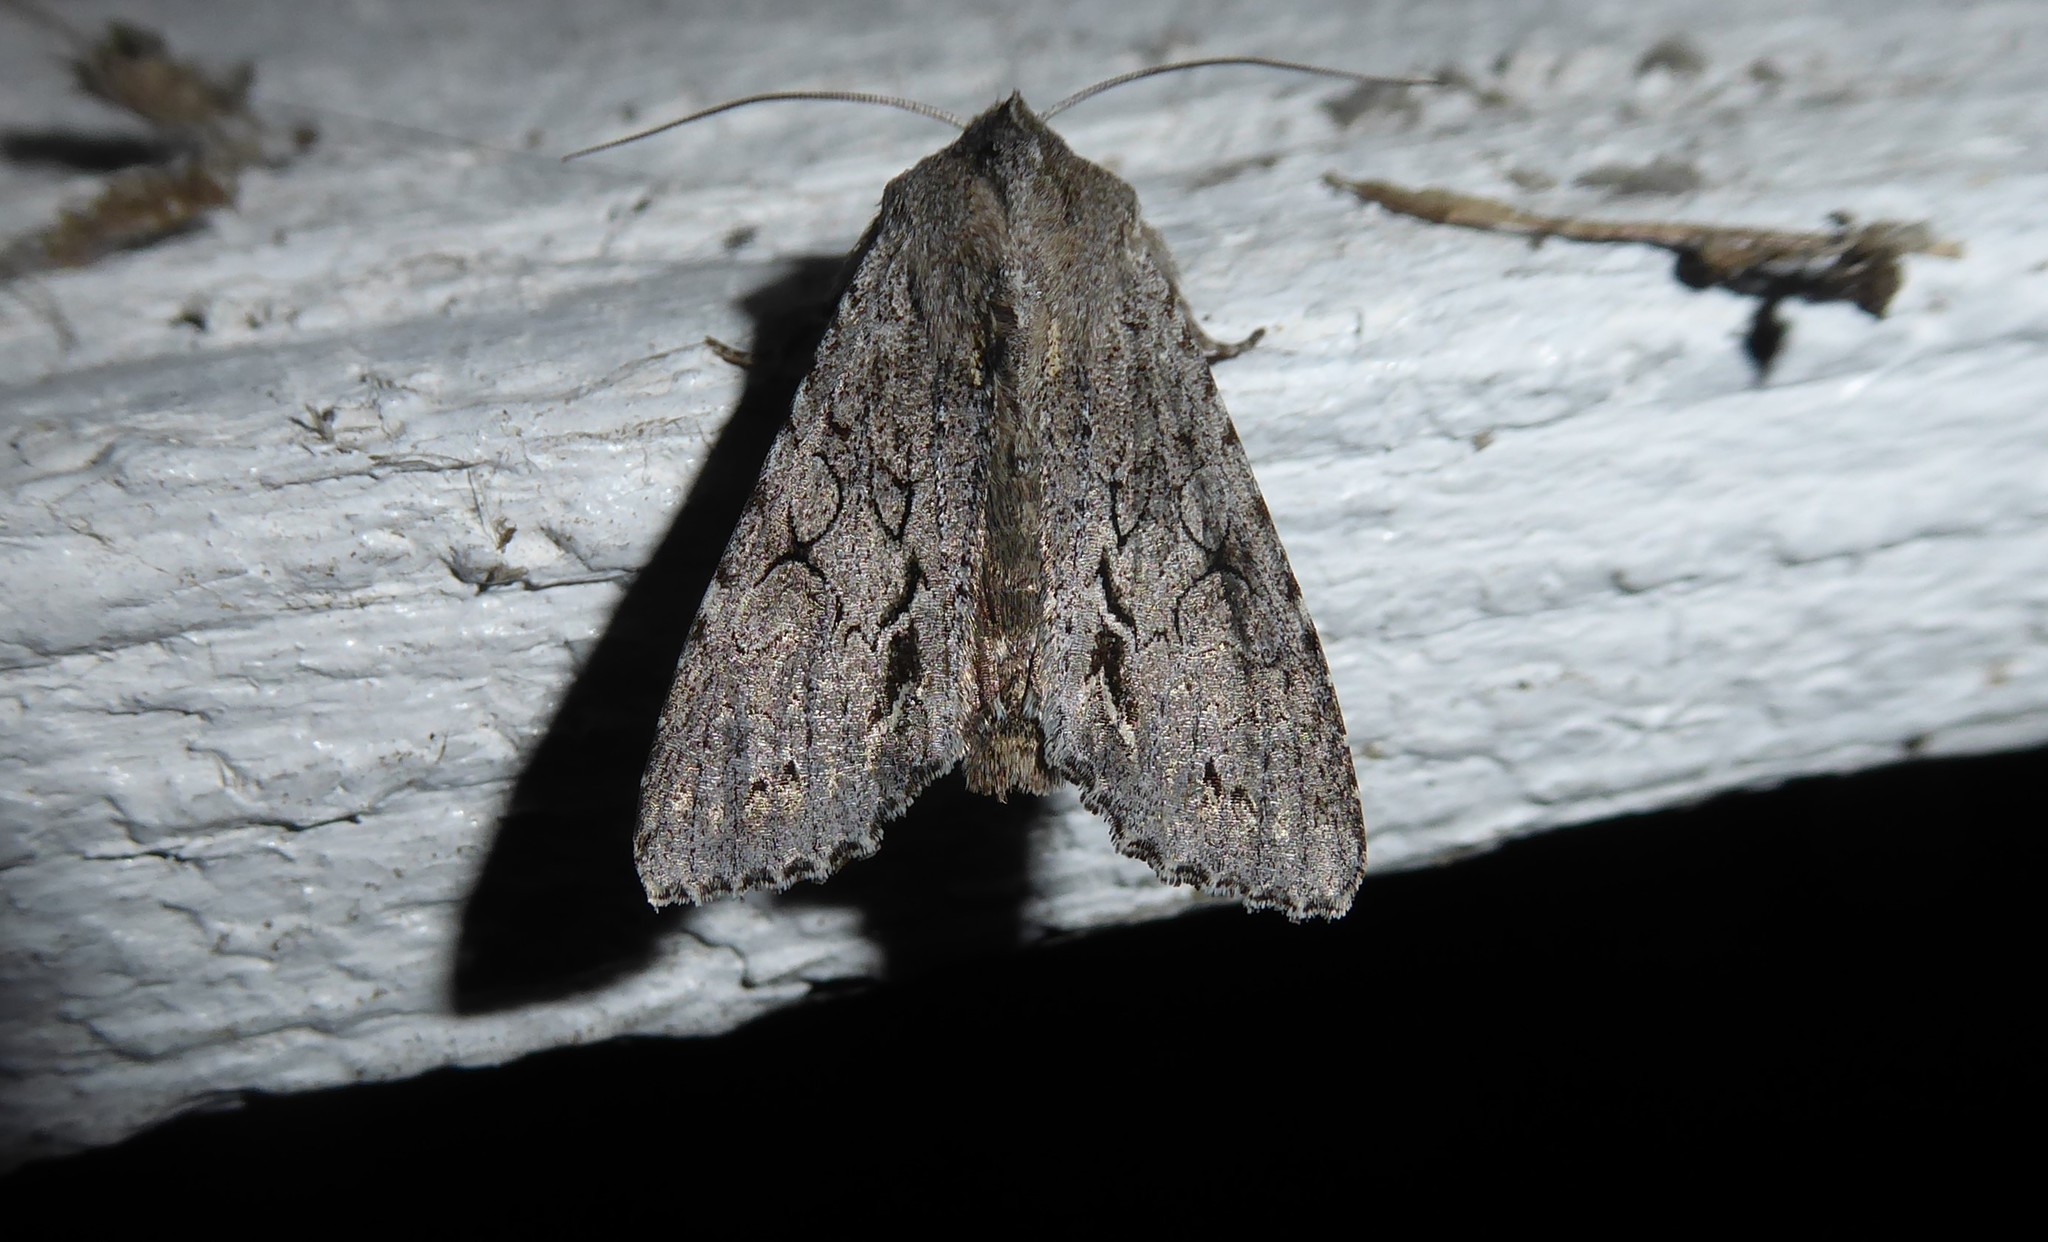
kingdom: Animalia
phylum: Arthropoda
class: Insecta
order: Lepidoptera
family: Noctuidae
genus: Ichneutica
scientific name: Ichneutica
